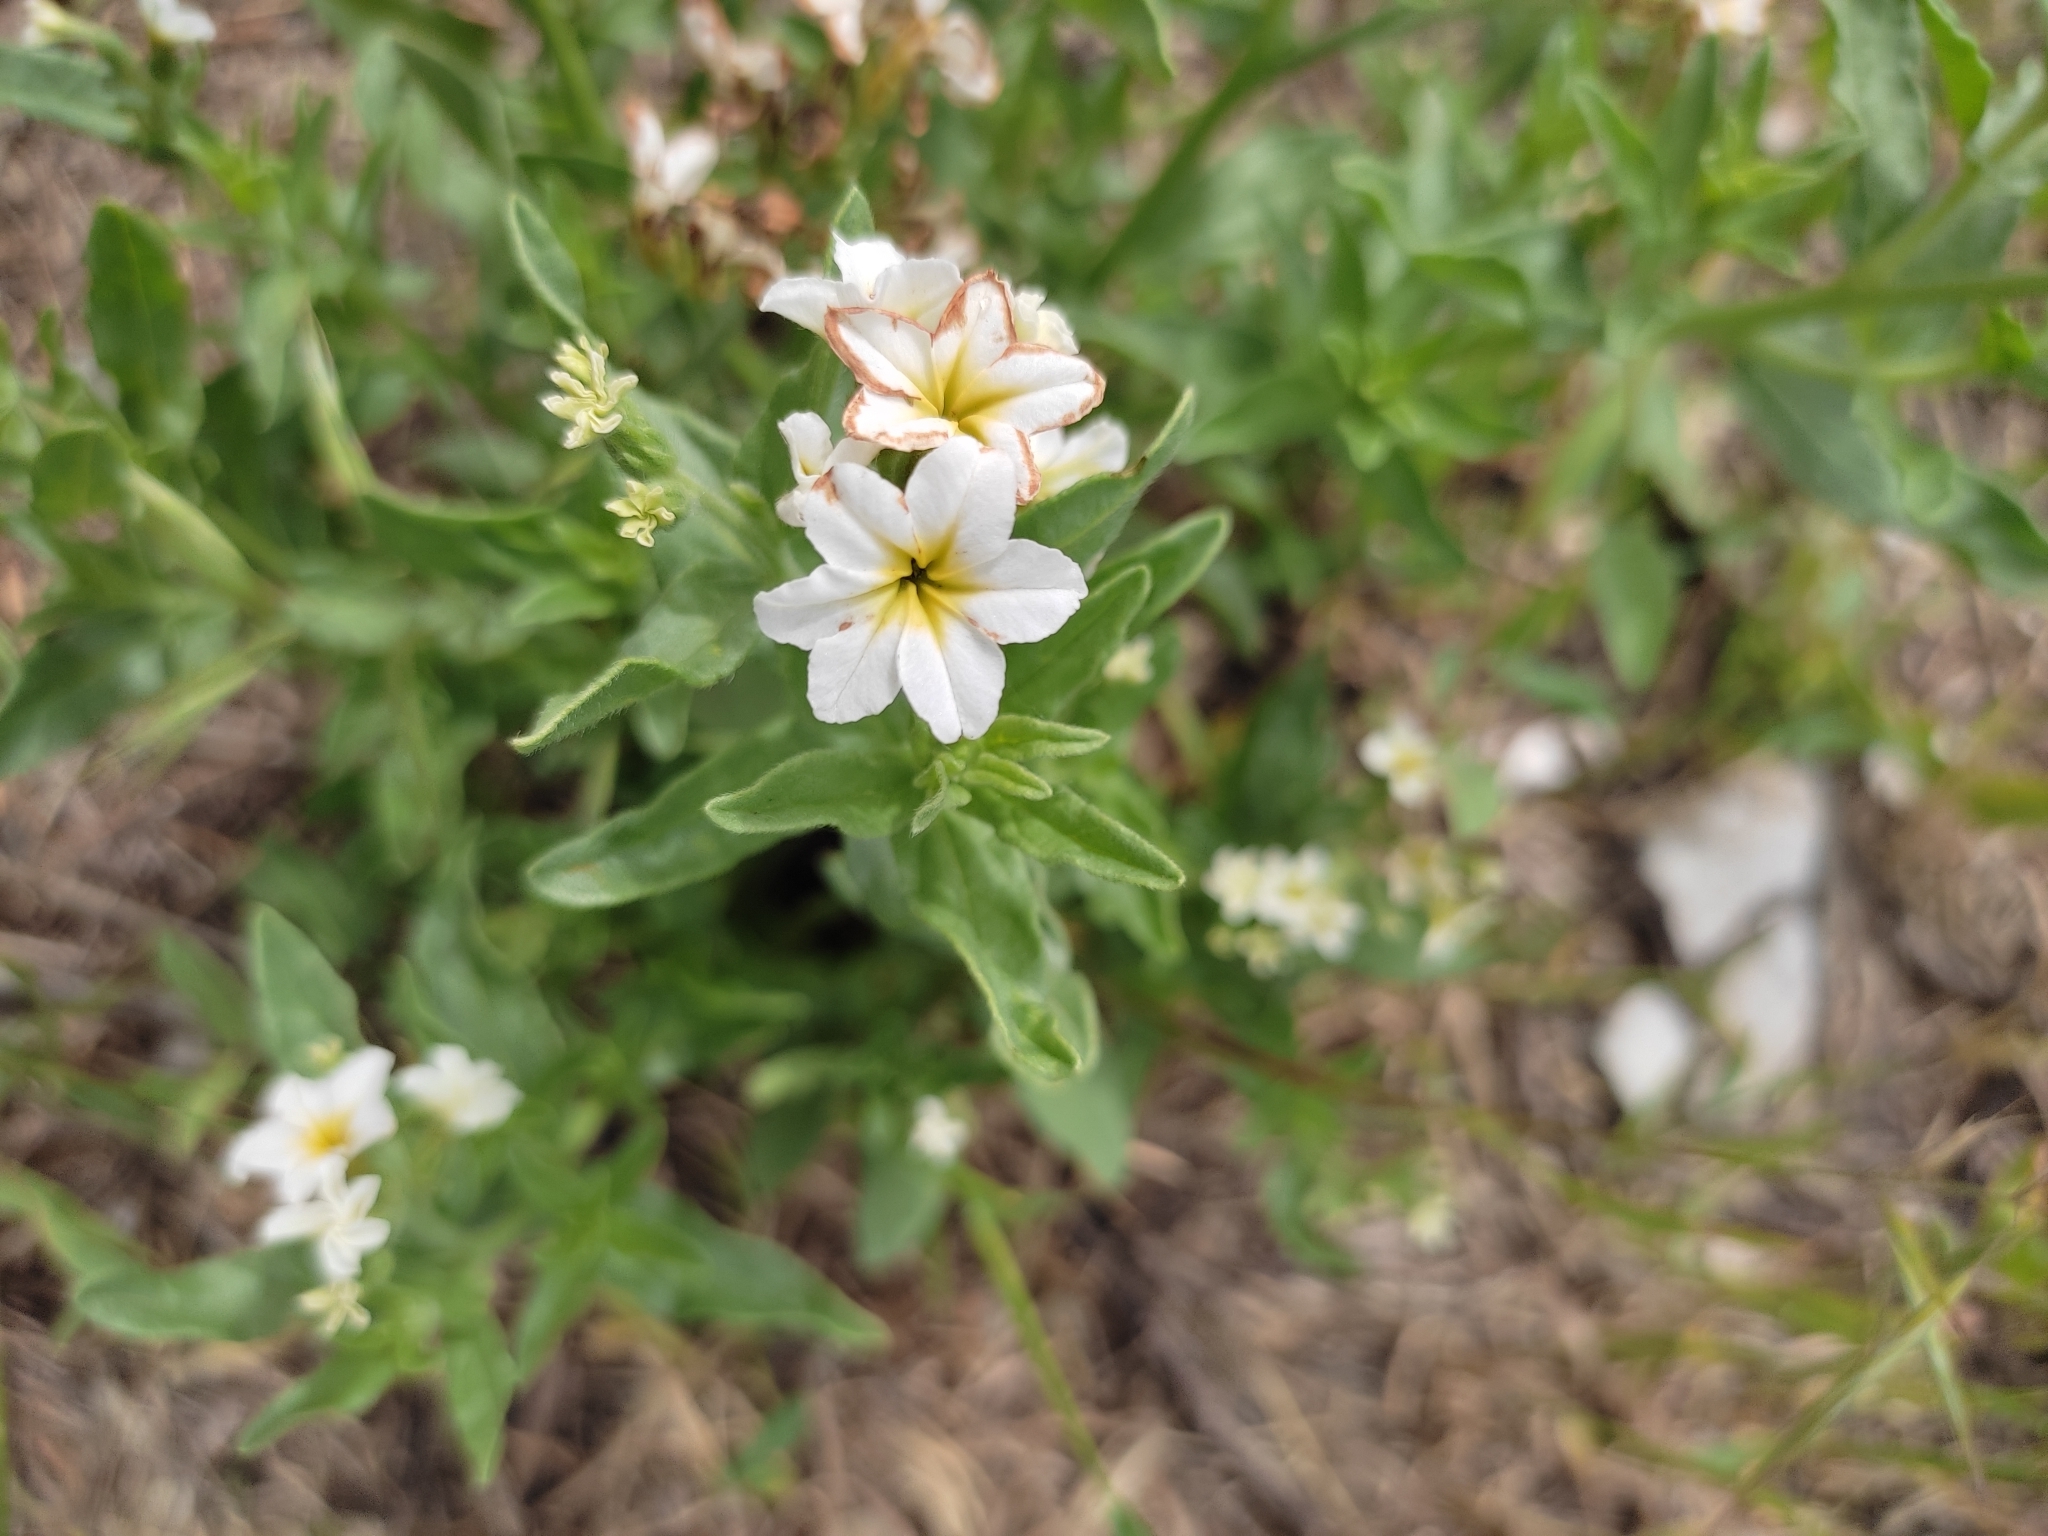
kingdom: Plantae
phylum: Tracheophyta
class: Magnoliopsida
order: Boraginales
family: Heliotropiaceae
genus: Tournefortia
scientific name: Tournefortia sibirica
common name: Siberian sea rosemary
